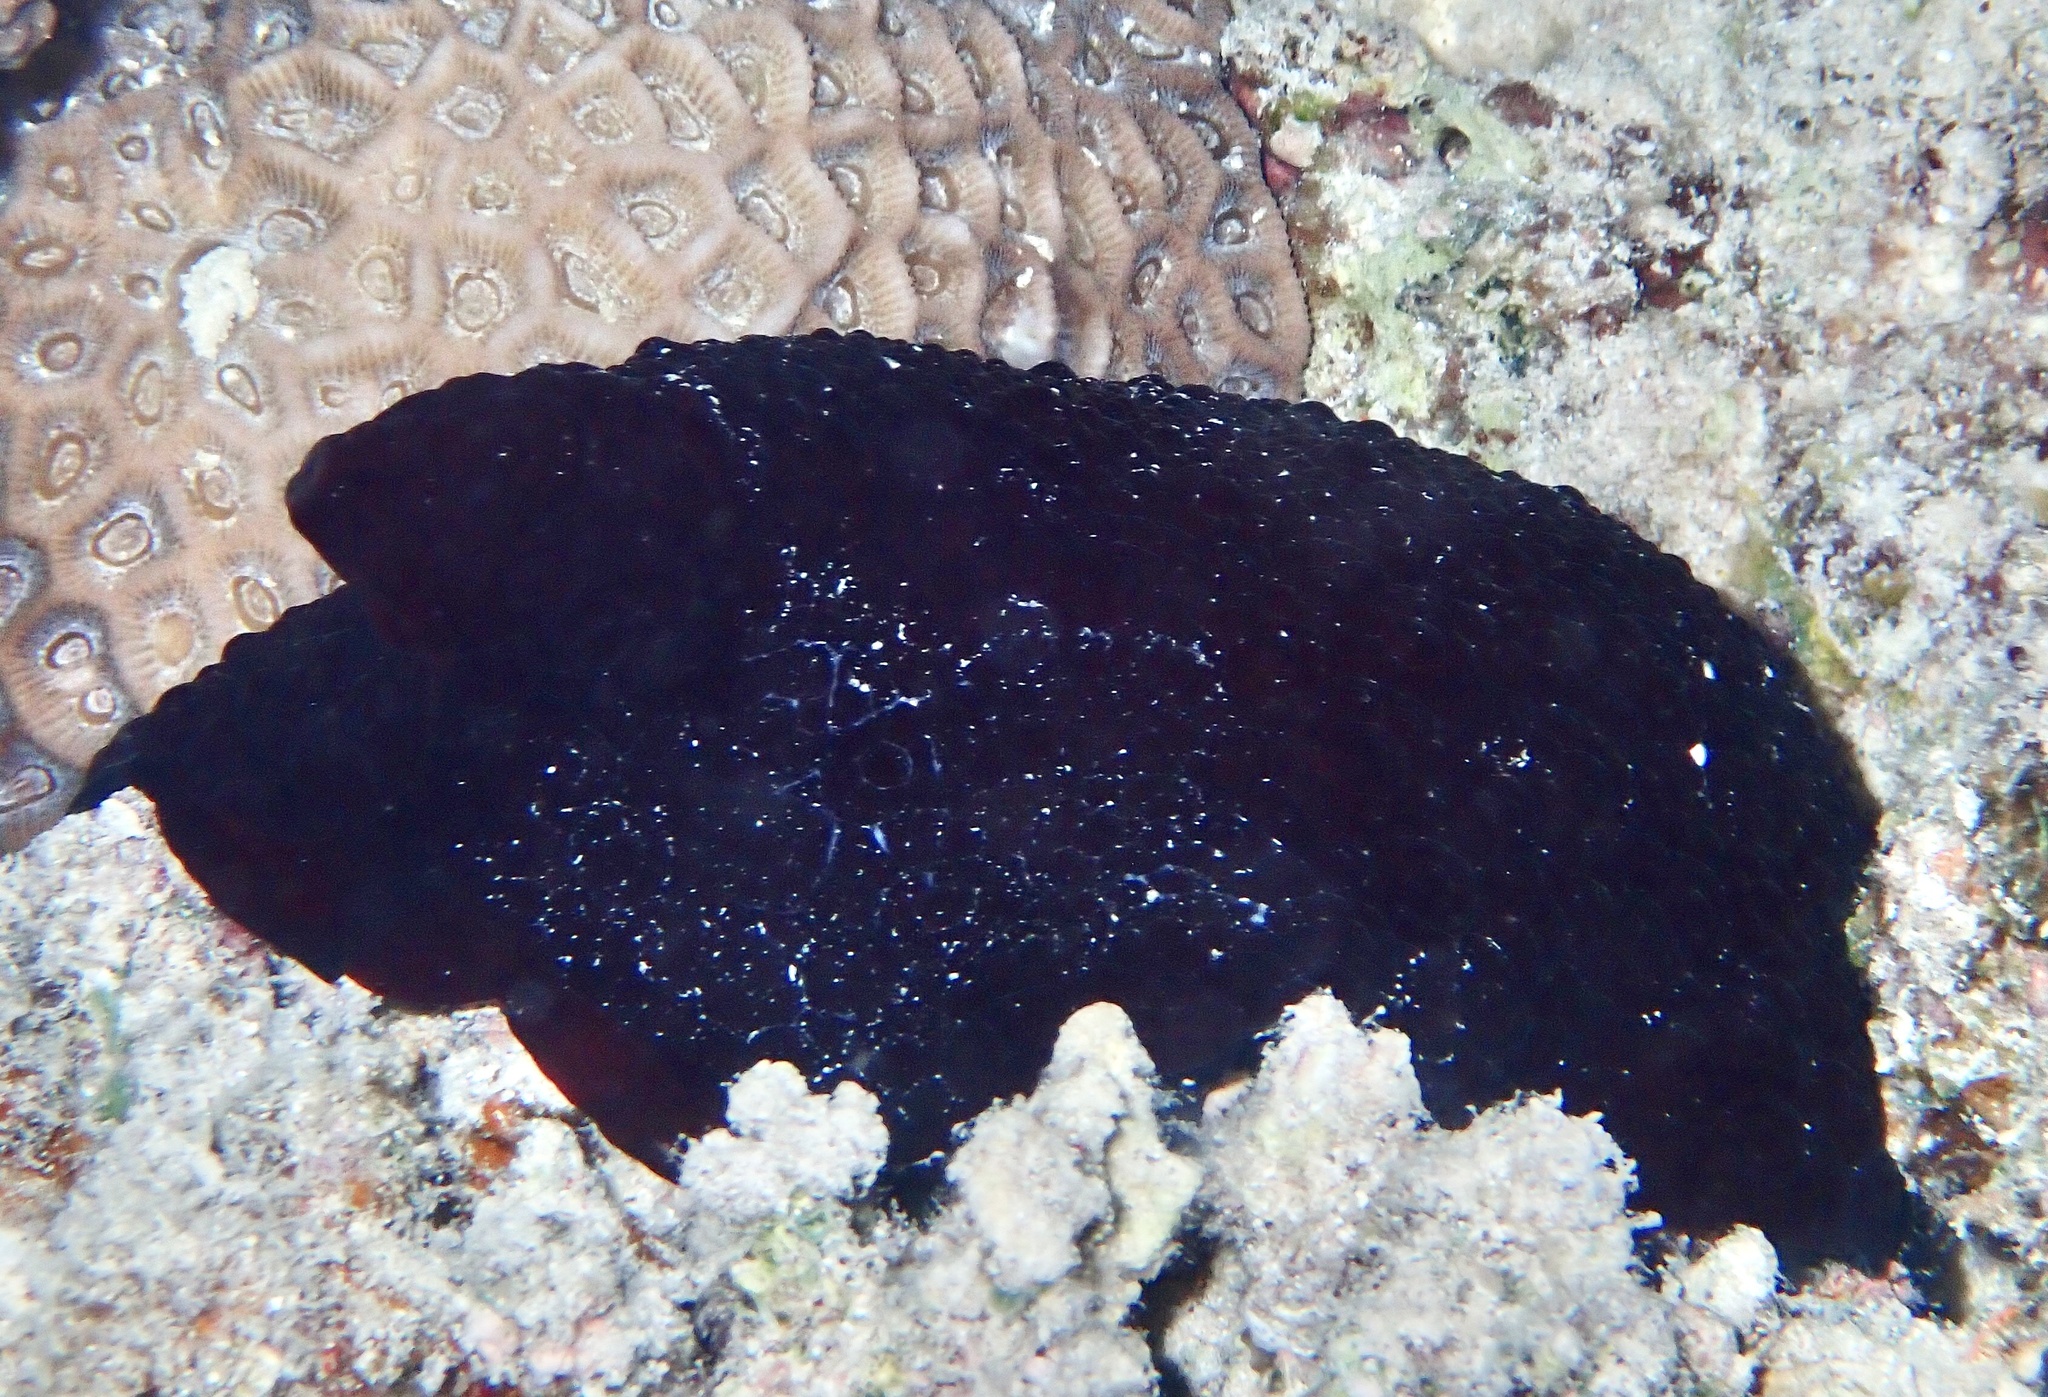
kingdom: Animalia
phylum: Mollusca
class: Gastropoda
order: Pleurobranchida
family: Pleurobranchidae
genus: Pleurobranchus
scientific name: Pleurobranchus grandis
